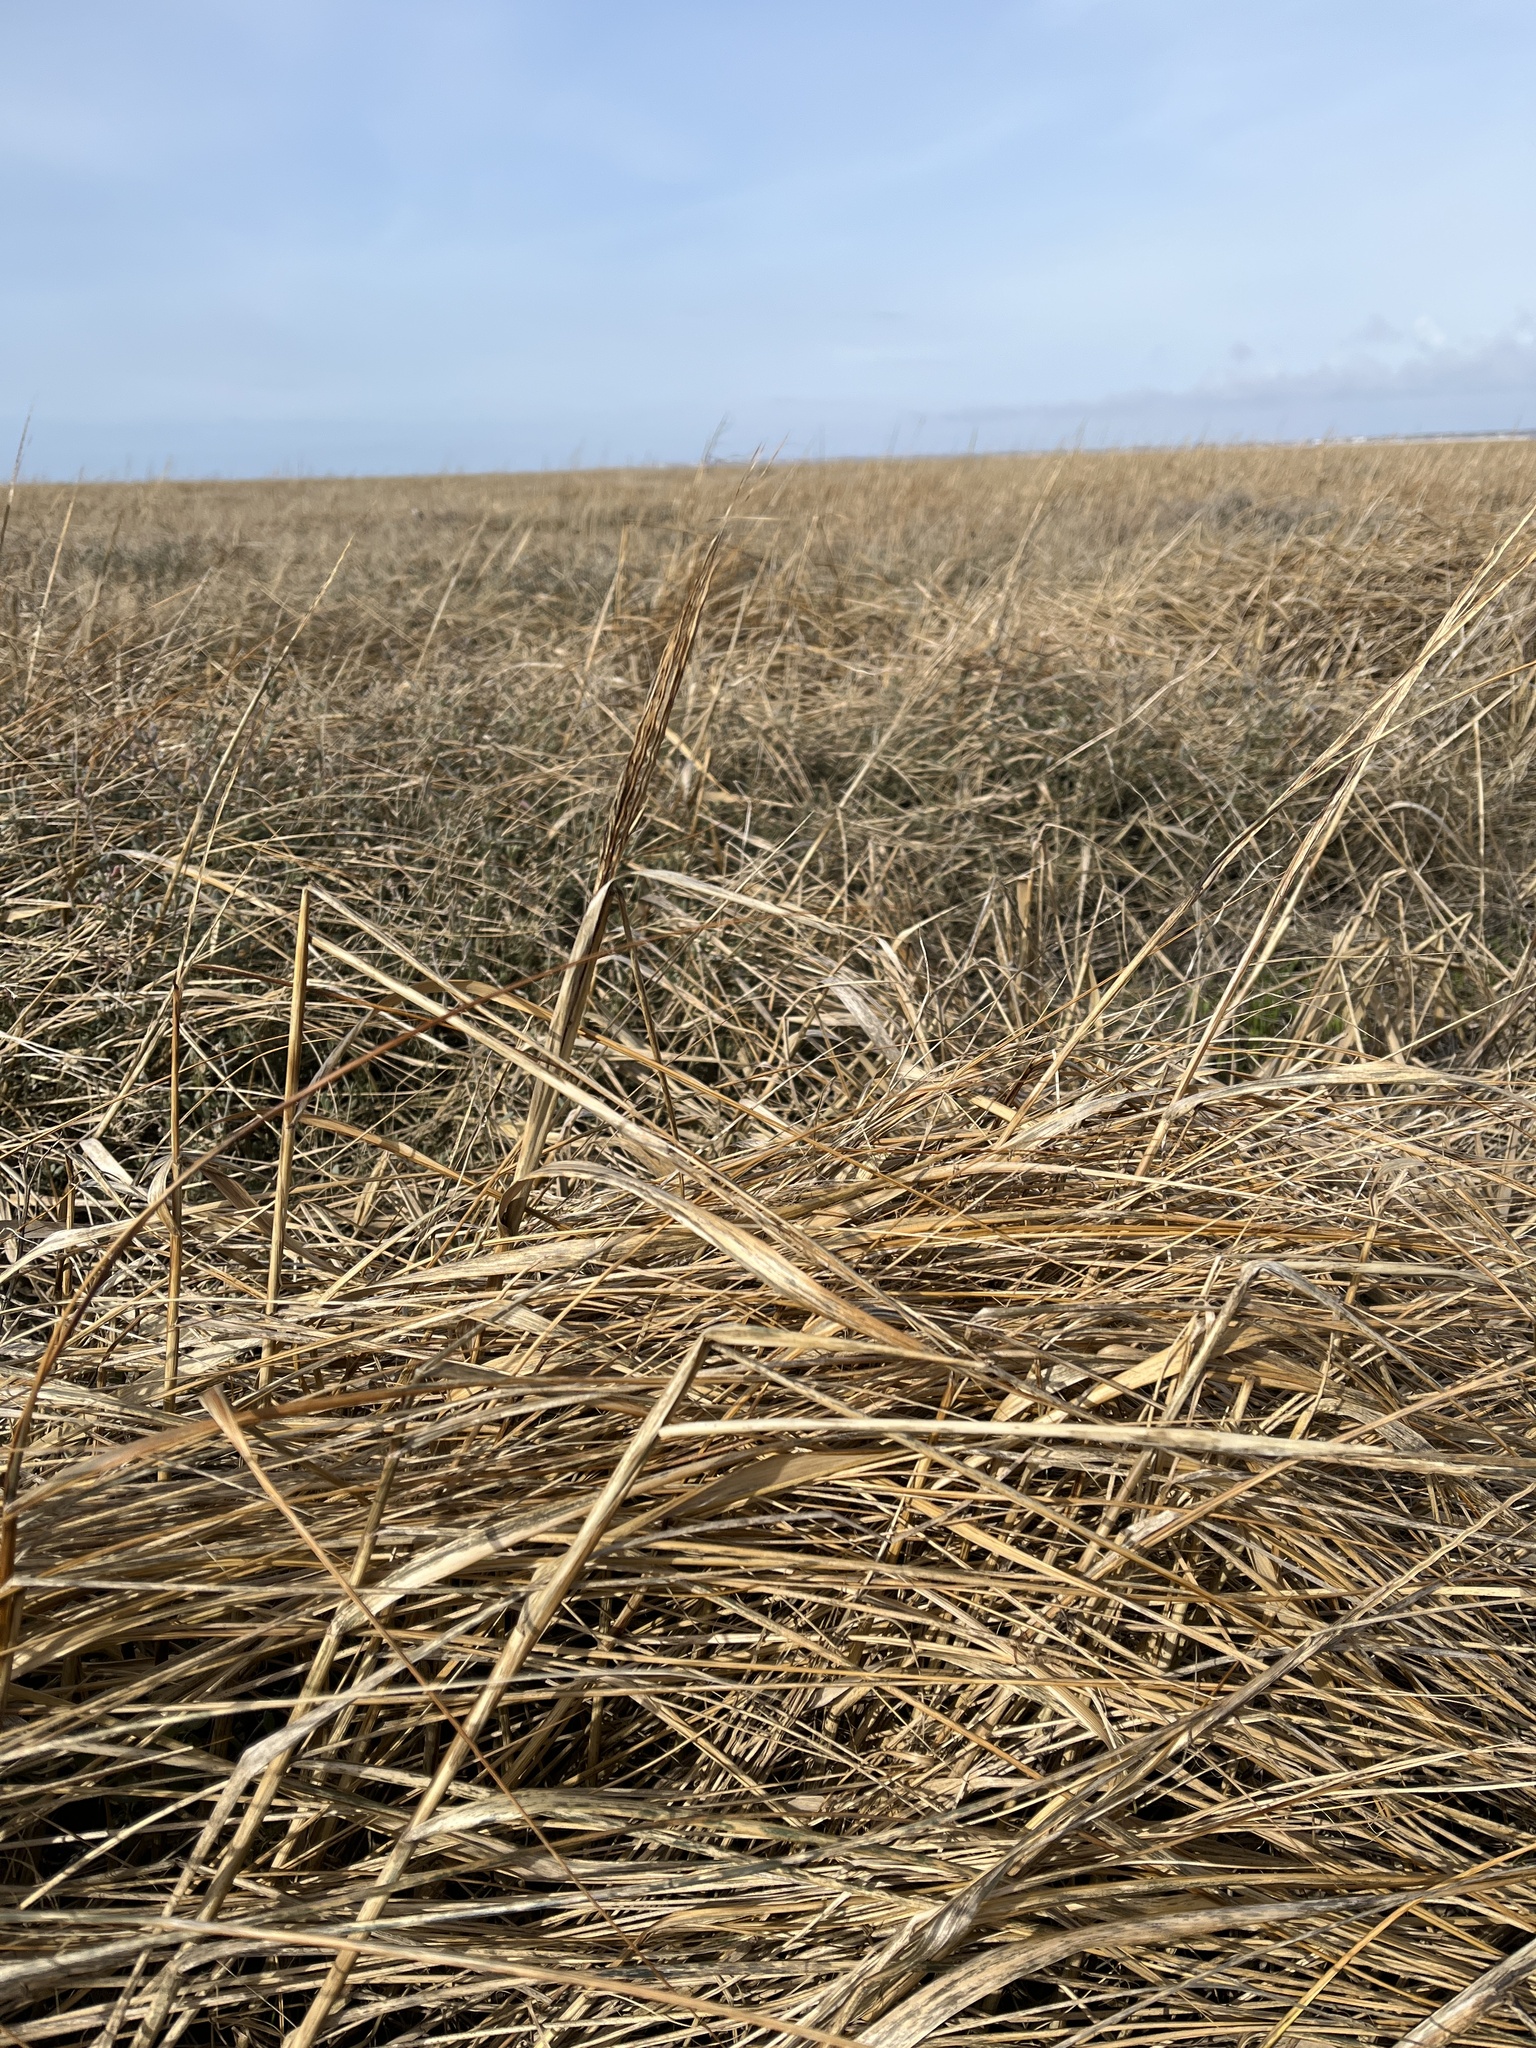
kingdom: Plantae
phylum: Tracheophyta
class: Liliopsida
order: Poales
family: Poaceae
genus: Sporobolus
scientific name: Sporobolus anglicus
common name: English cordgrass
